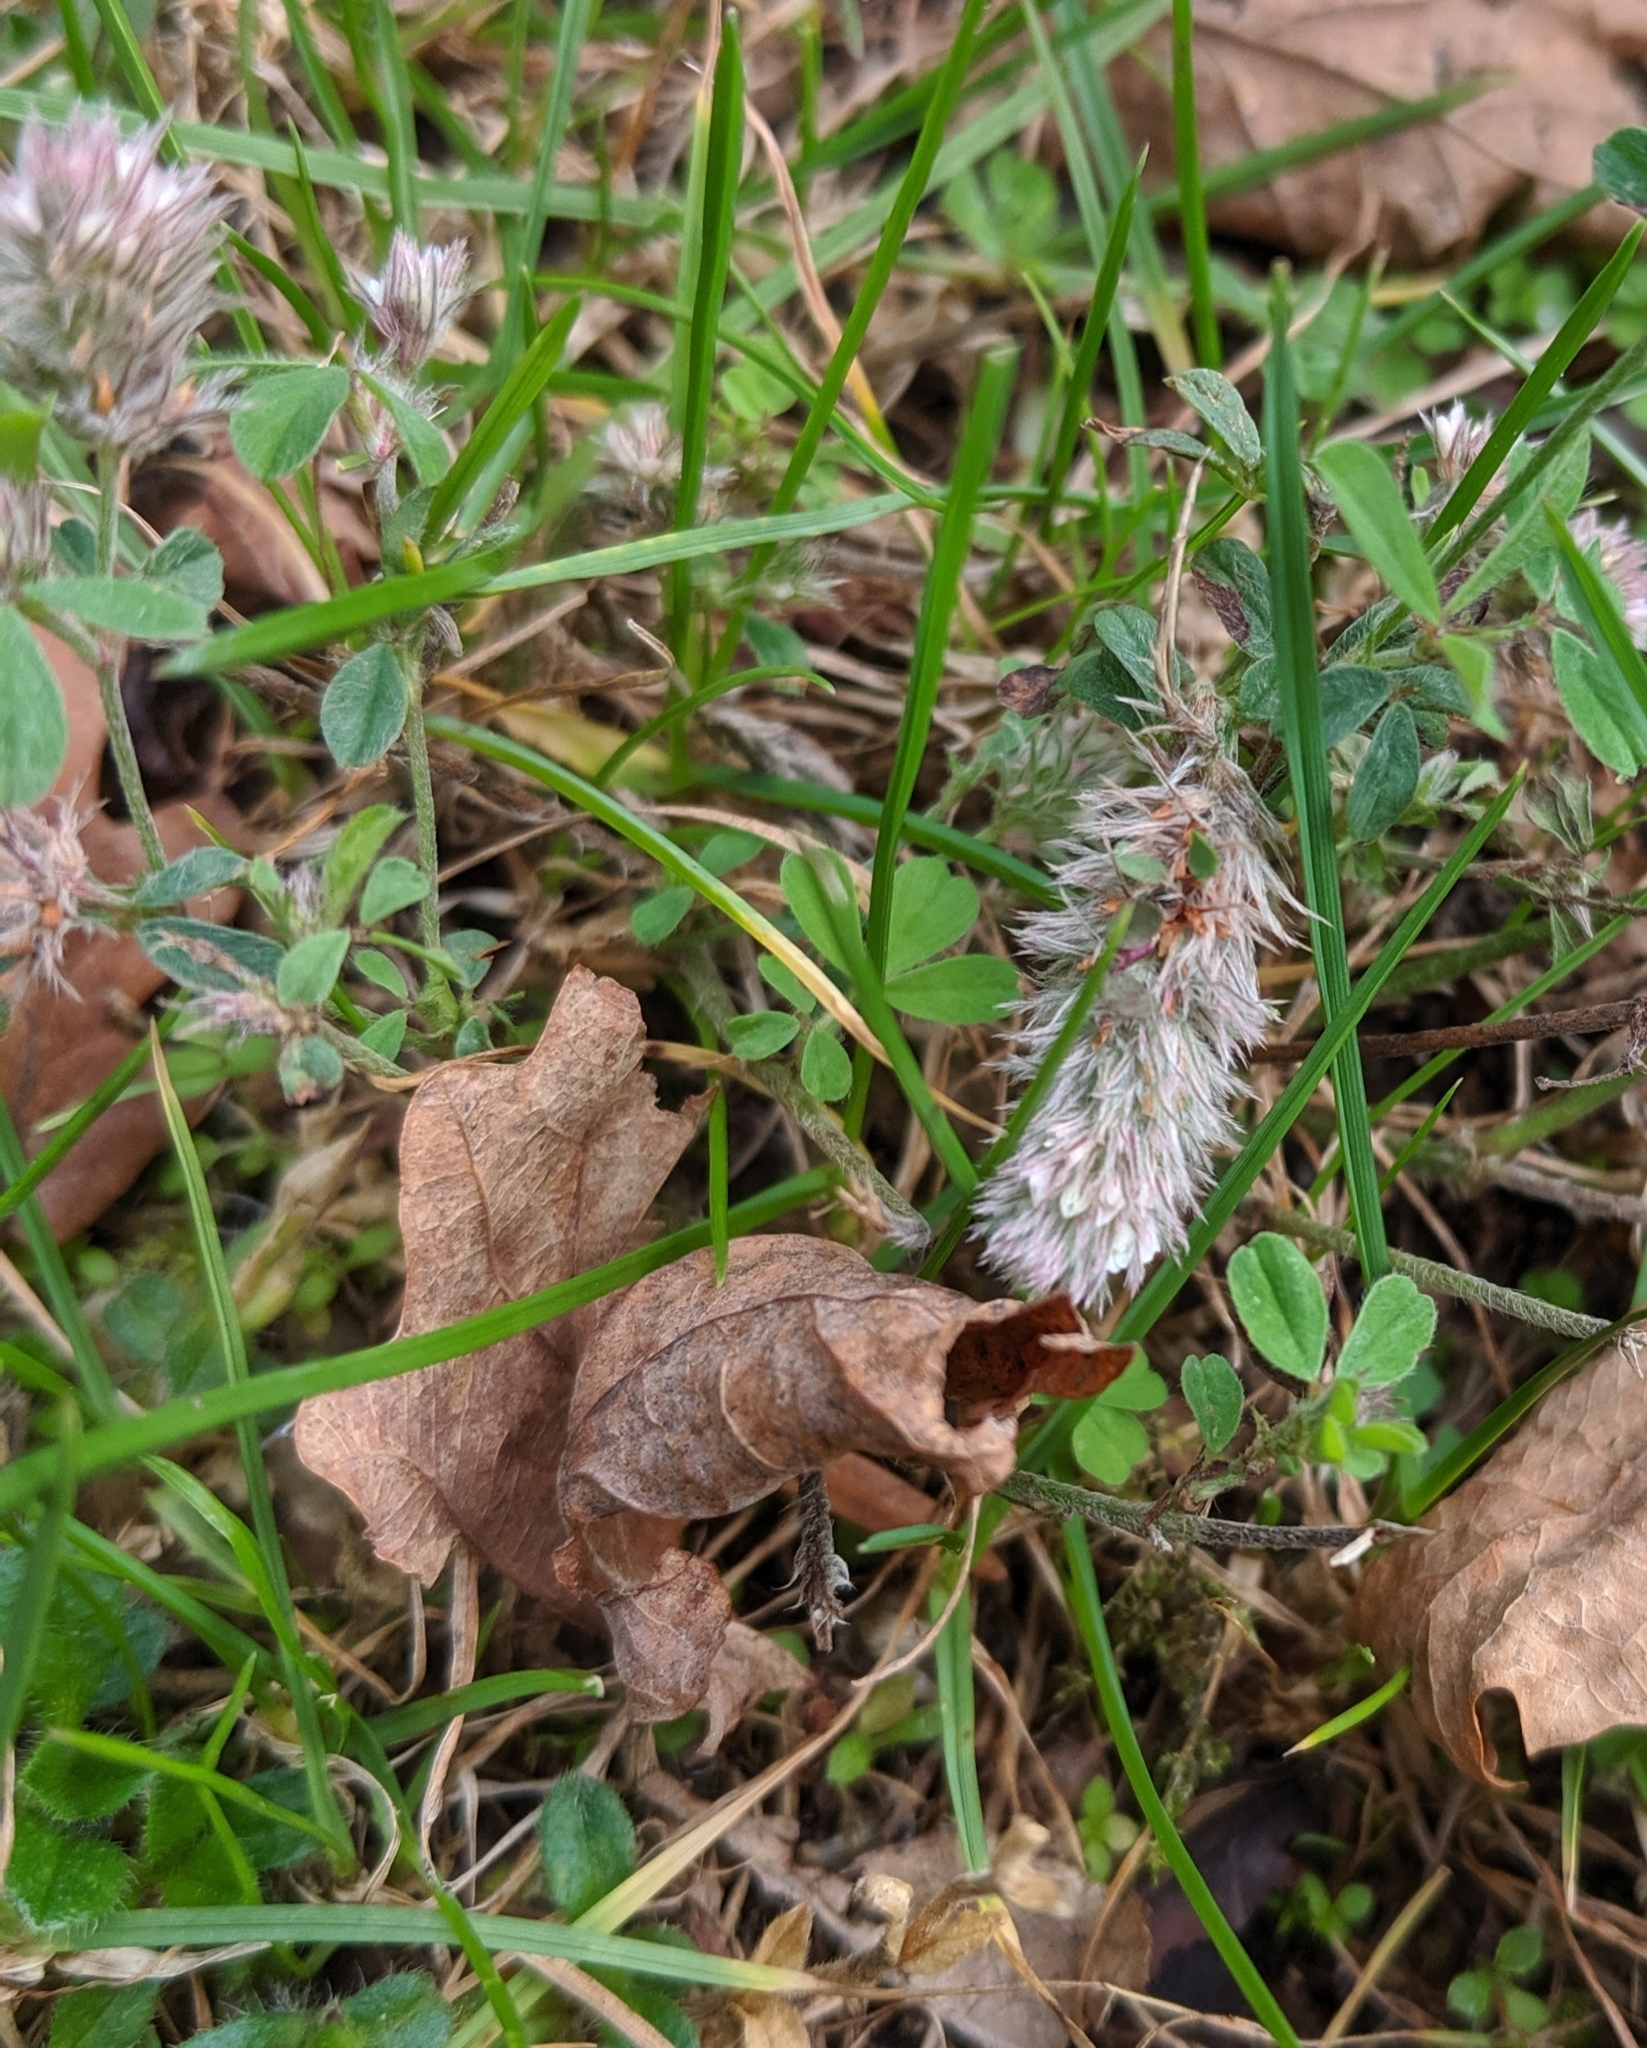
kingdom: Plantae
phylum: Tracheophyta
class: Magnoliopsida
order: Fabales
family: Fabaceae
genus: Trifolium
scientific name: Trifolium arvense
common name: Hare's-foot clover
